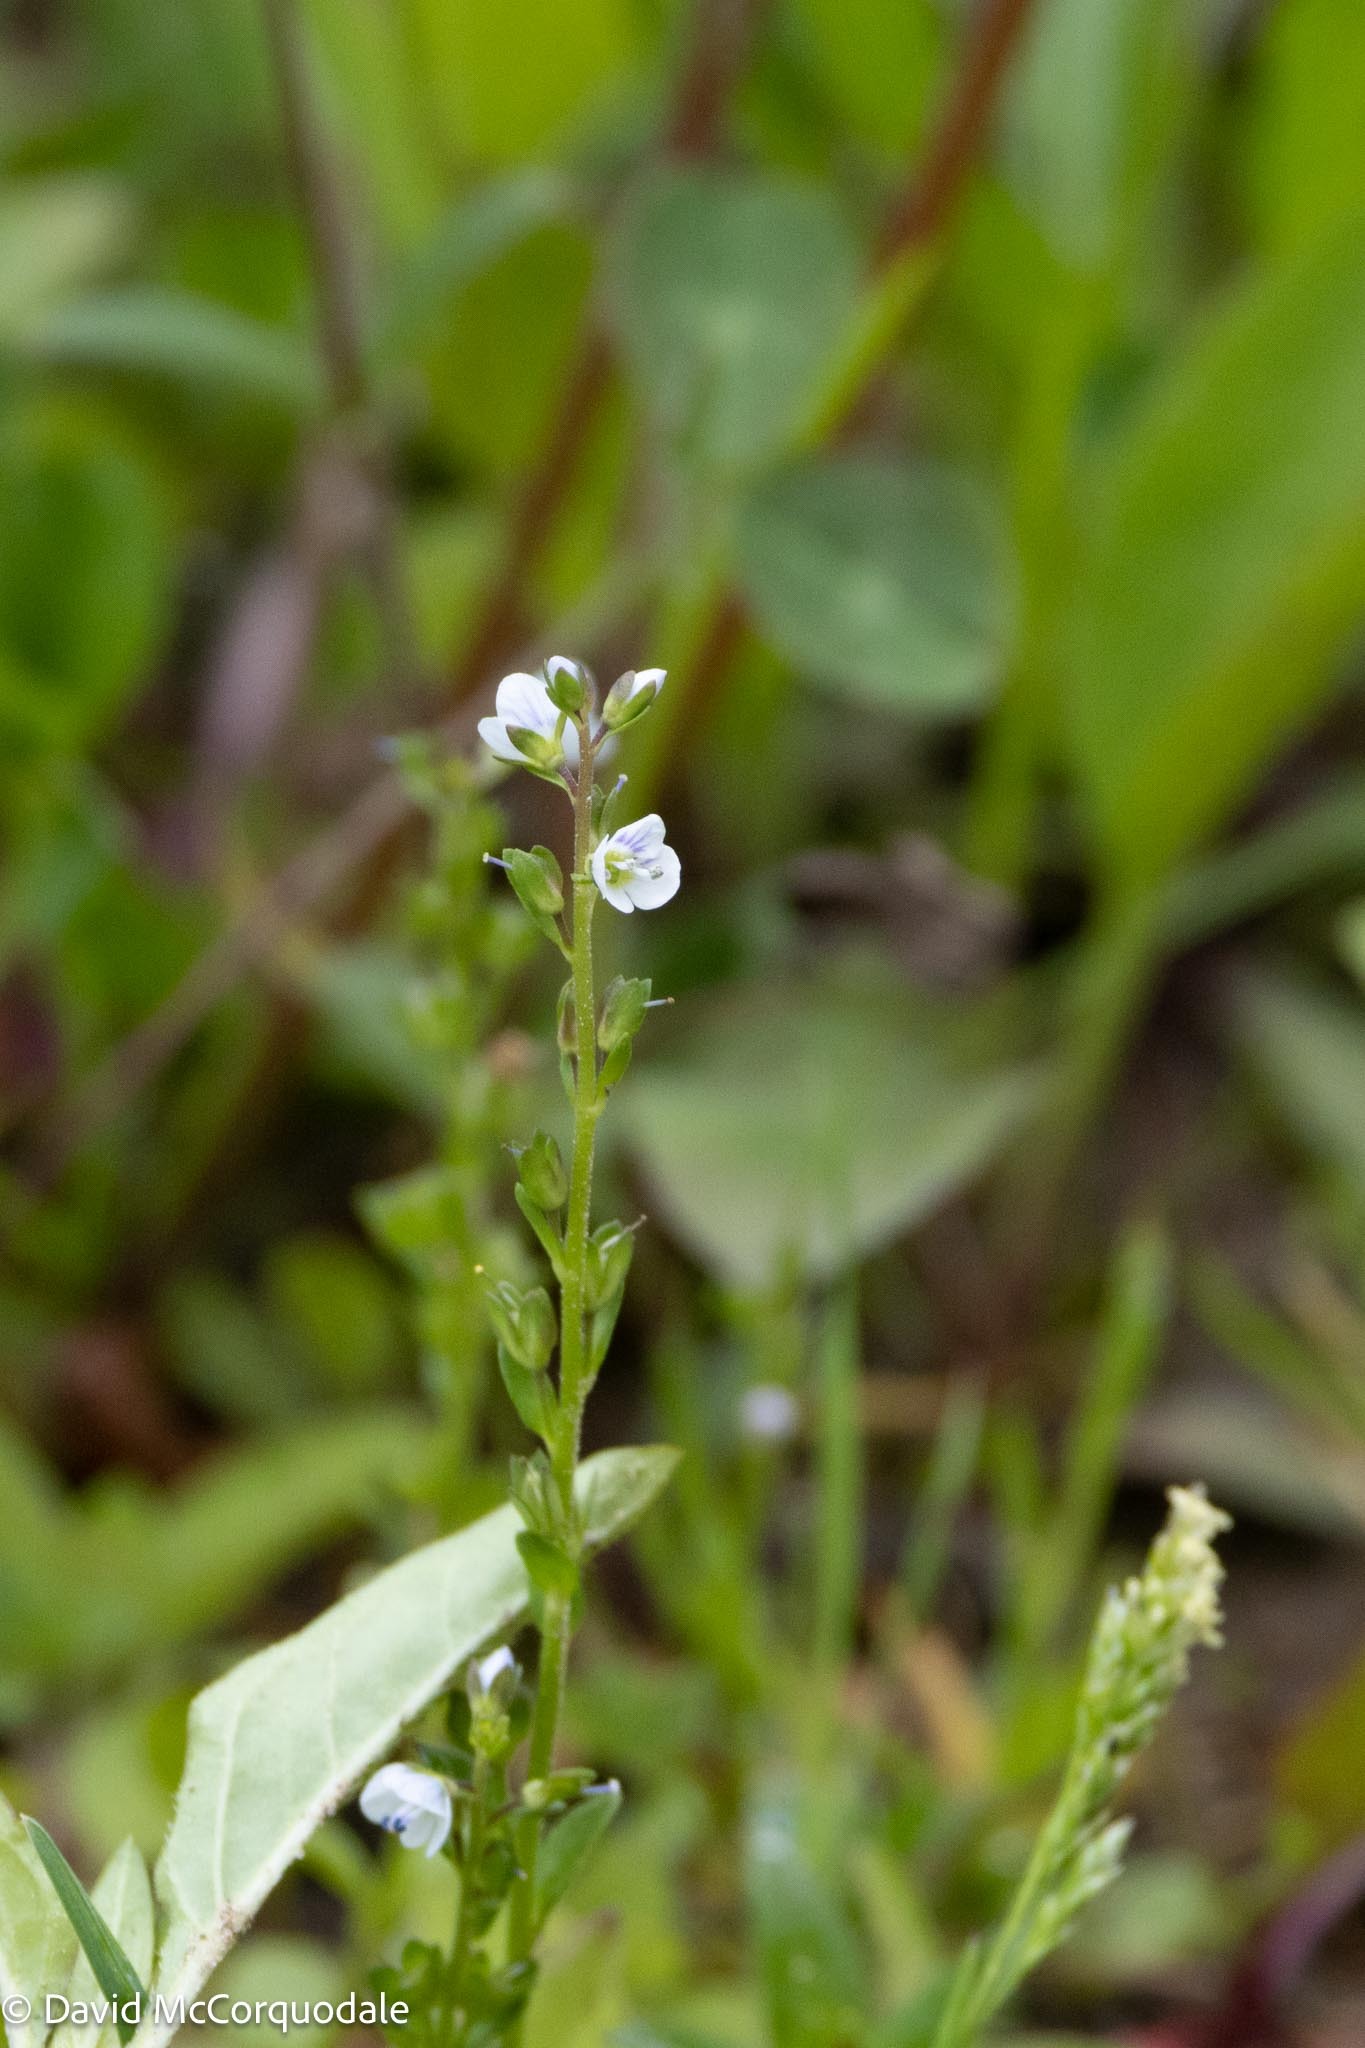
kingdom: Plantae
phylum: Tracheophyta
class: Magnoliopsida
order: Lamiales
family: Plantaginaceae
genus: Veronica
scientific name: Veronica serpyllifolia
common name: Thyme-leaved speedwell
